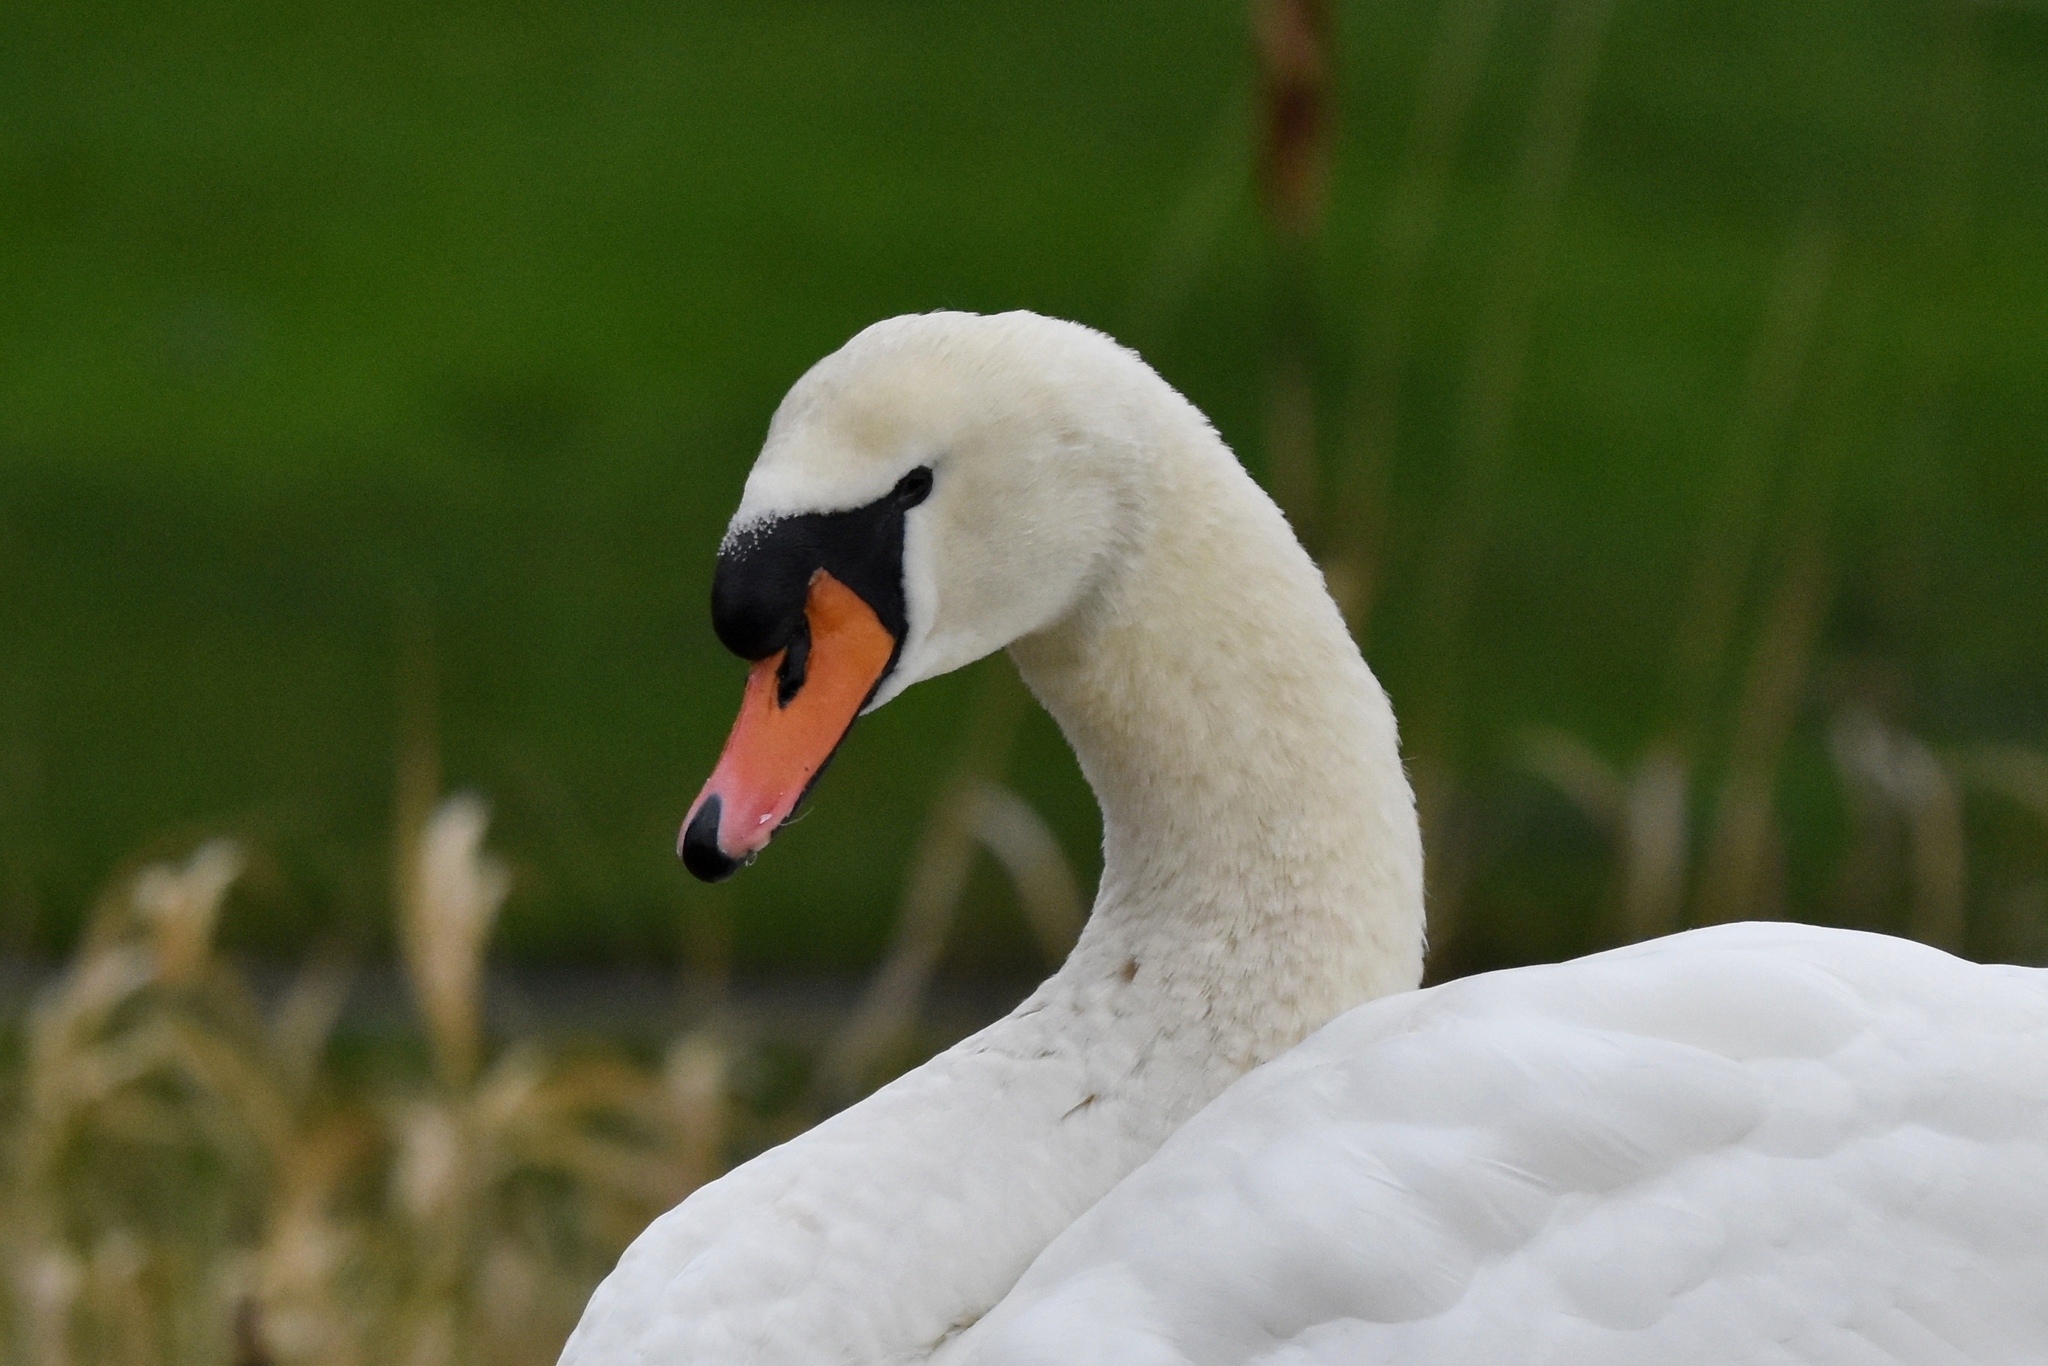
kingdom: Animalia
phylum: Chordata
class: Aves
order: Anseriformes
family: Anatidae
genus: Cygnus
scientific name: Cygnus olor
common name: Mute swan
